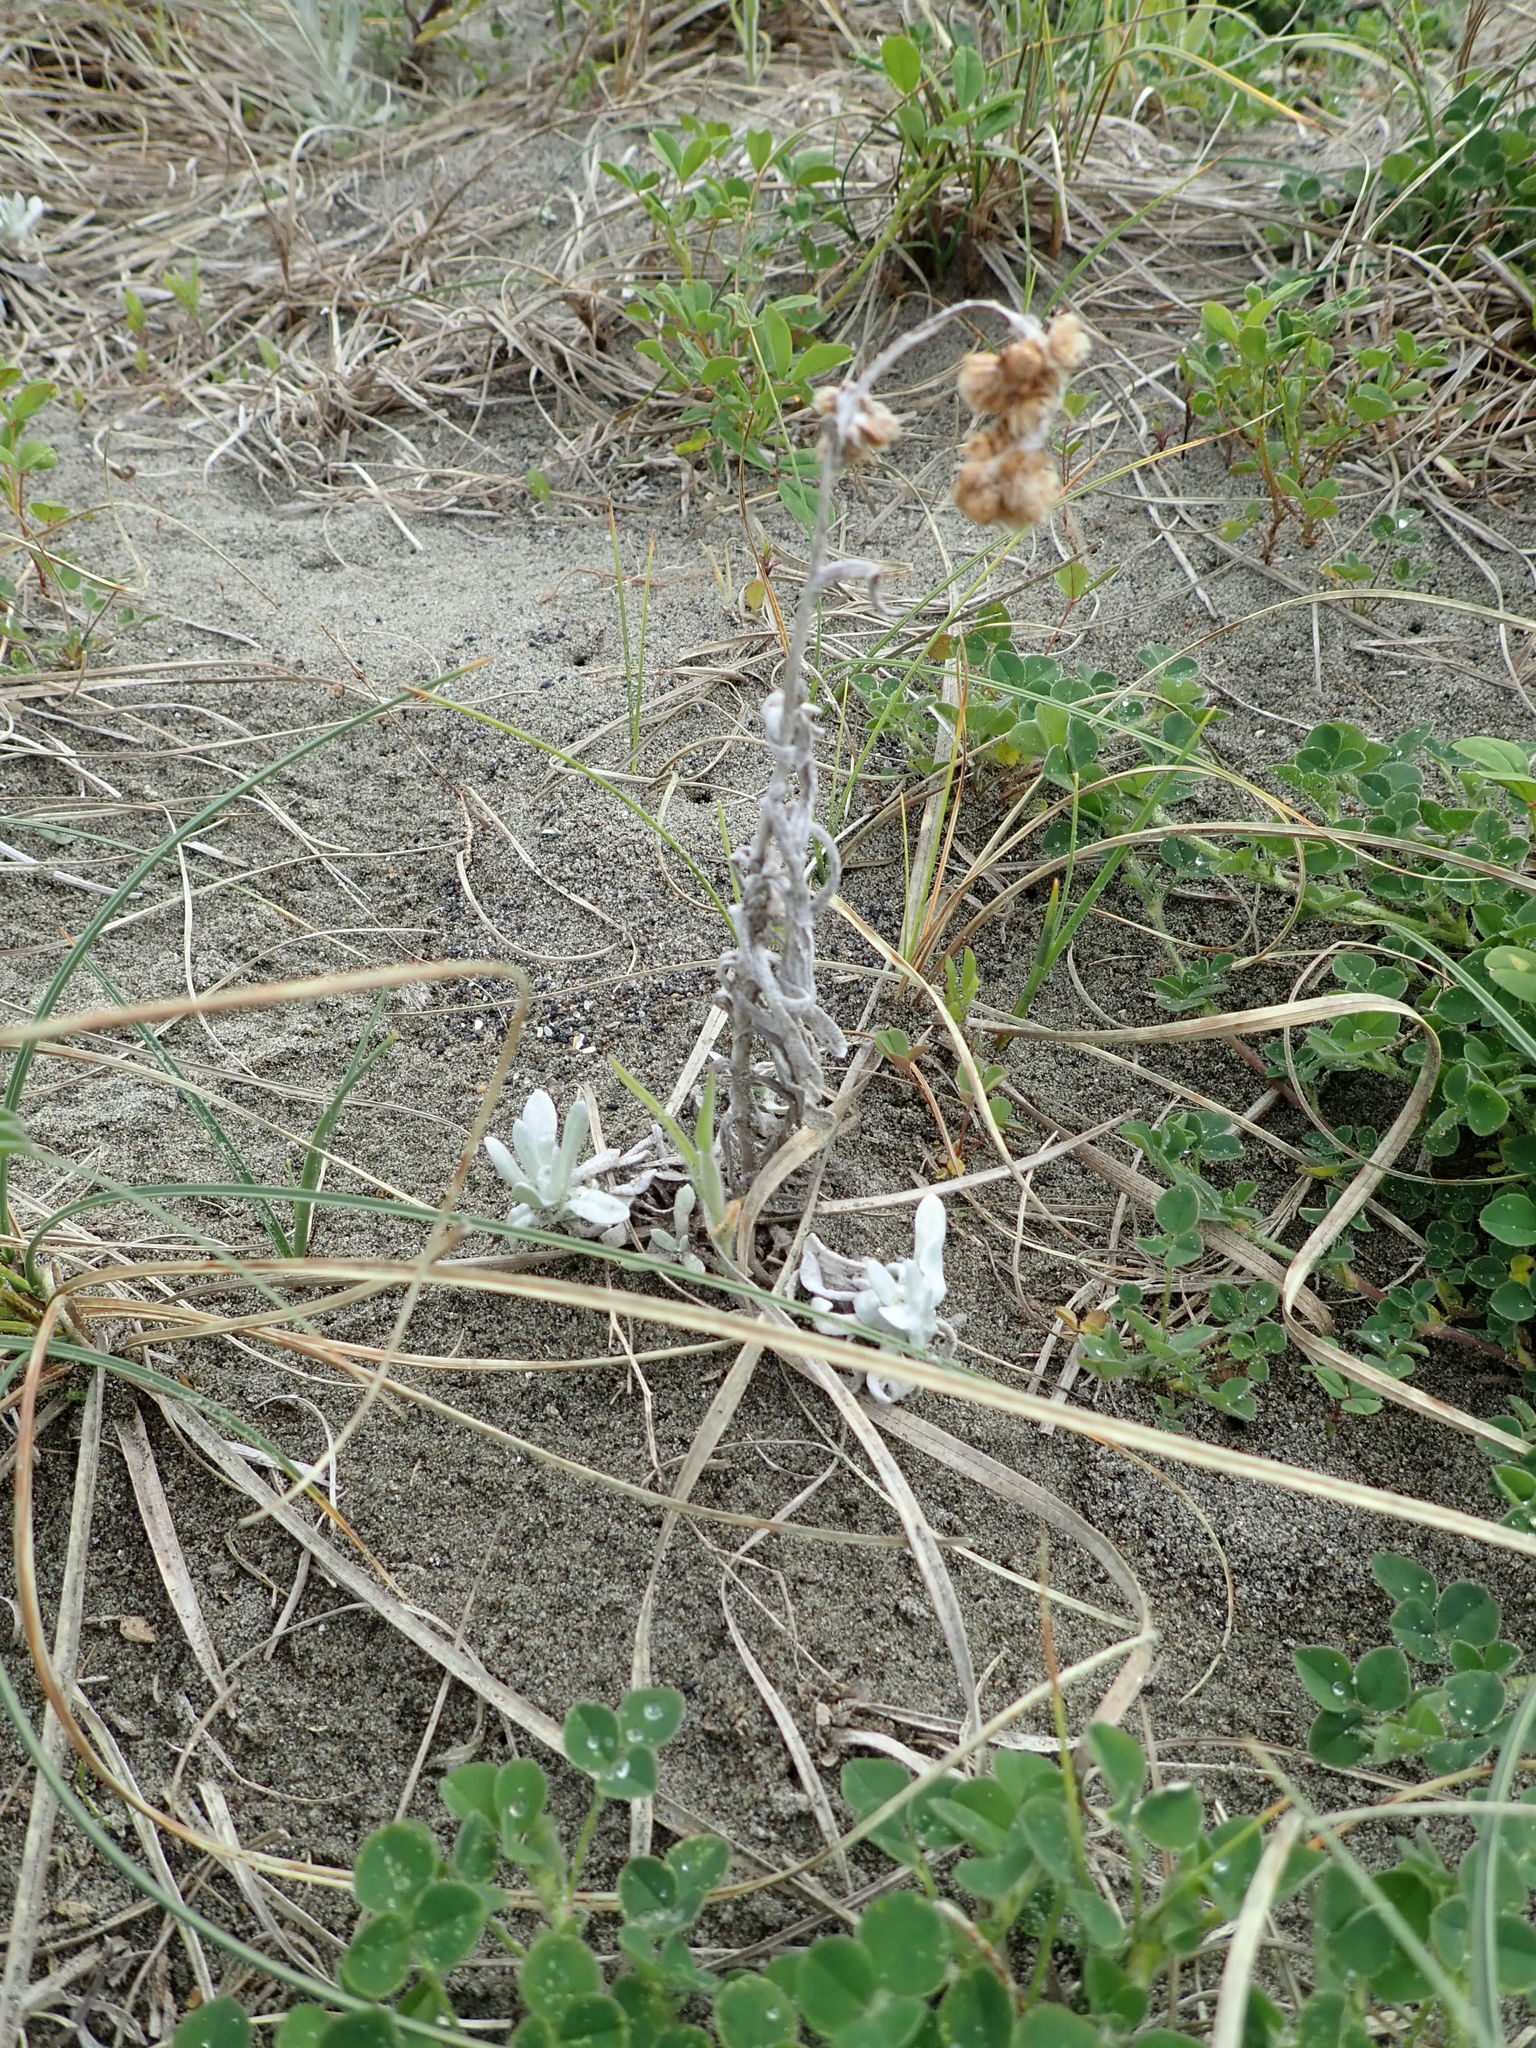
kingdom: Plantae
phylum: Tracheophyta
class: Magnoliopsida
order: Asterales
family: Asteraceae
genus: Helichrysum
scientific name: Helichrysum luteoalbum
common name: Daisy
